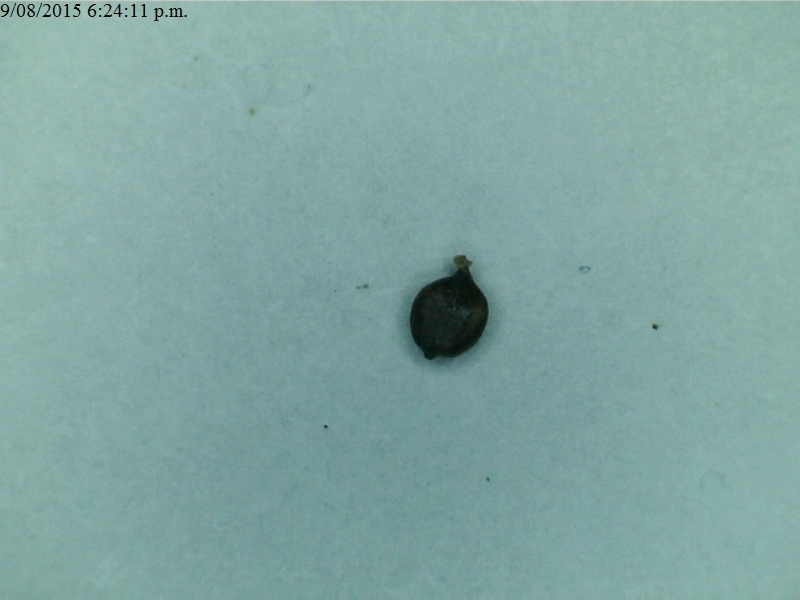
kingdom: Plantae
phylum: Tracheophyta
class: Liliopsida
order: Poales
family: Cyperaceae
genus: Carex
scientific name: Carex flagellifera
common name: Glen murray tussock
